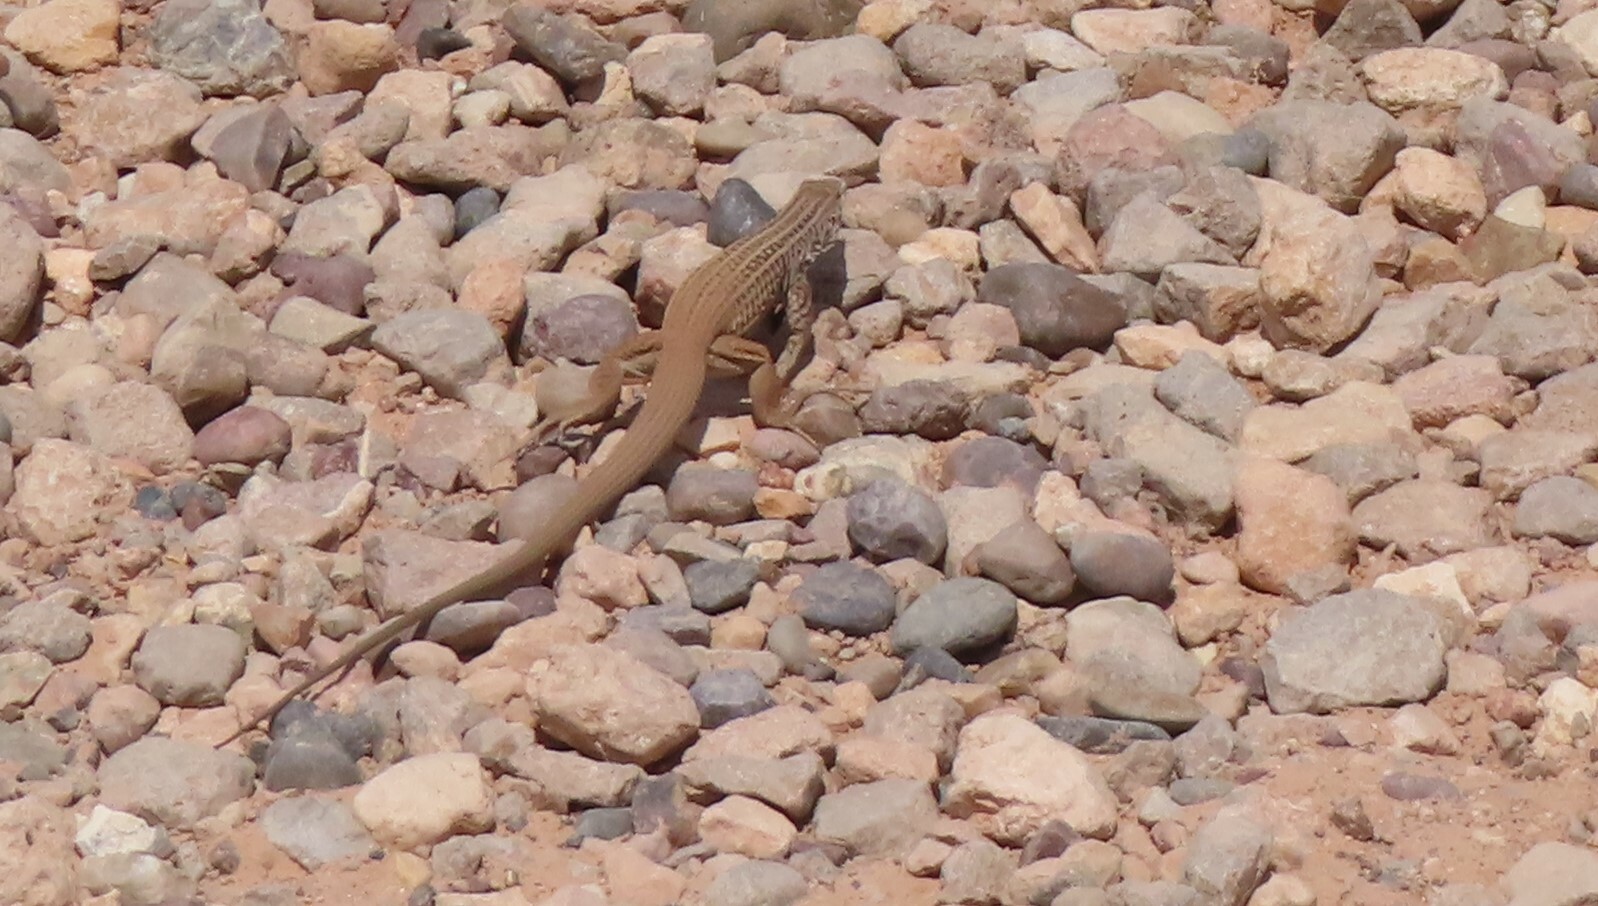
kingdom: Animalia
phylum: Chordata
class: Squamata
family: Teiidae
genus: Aspidoscelis
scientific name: Aspidoscelis tigris
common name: Tiger whiptail
